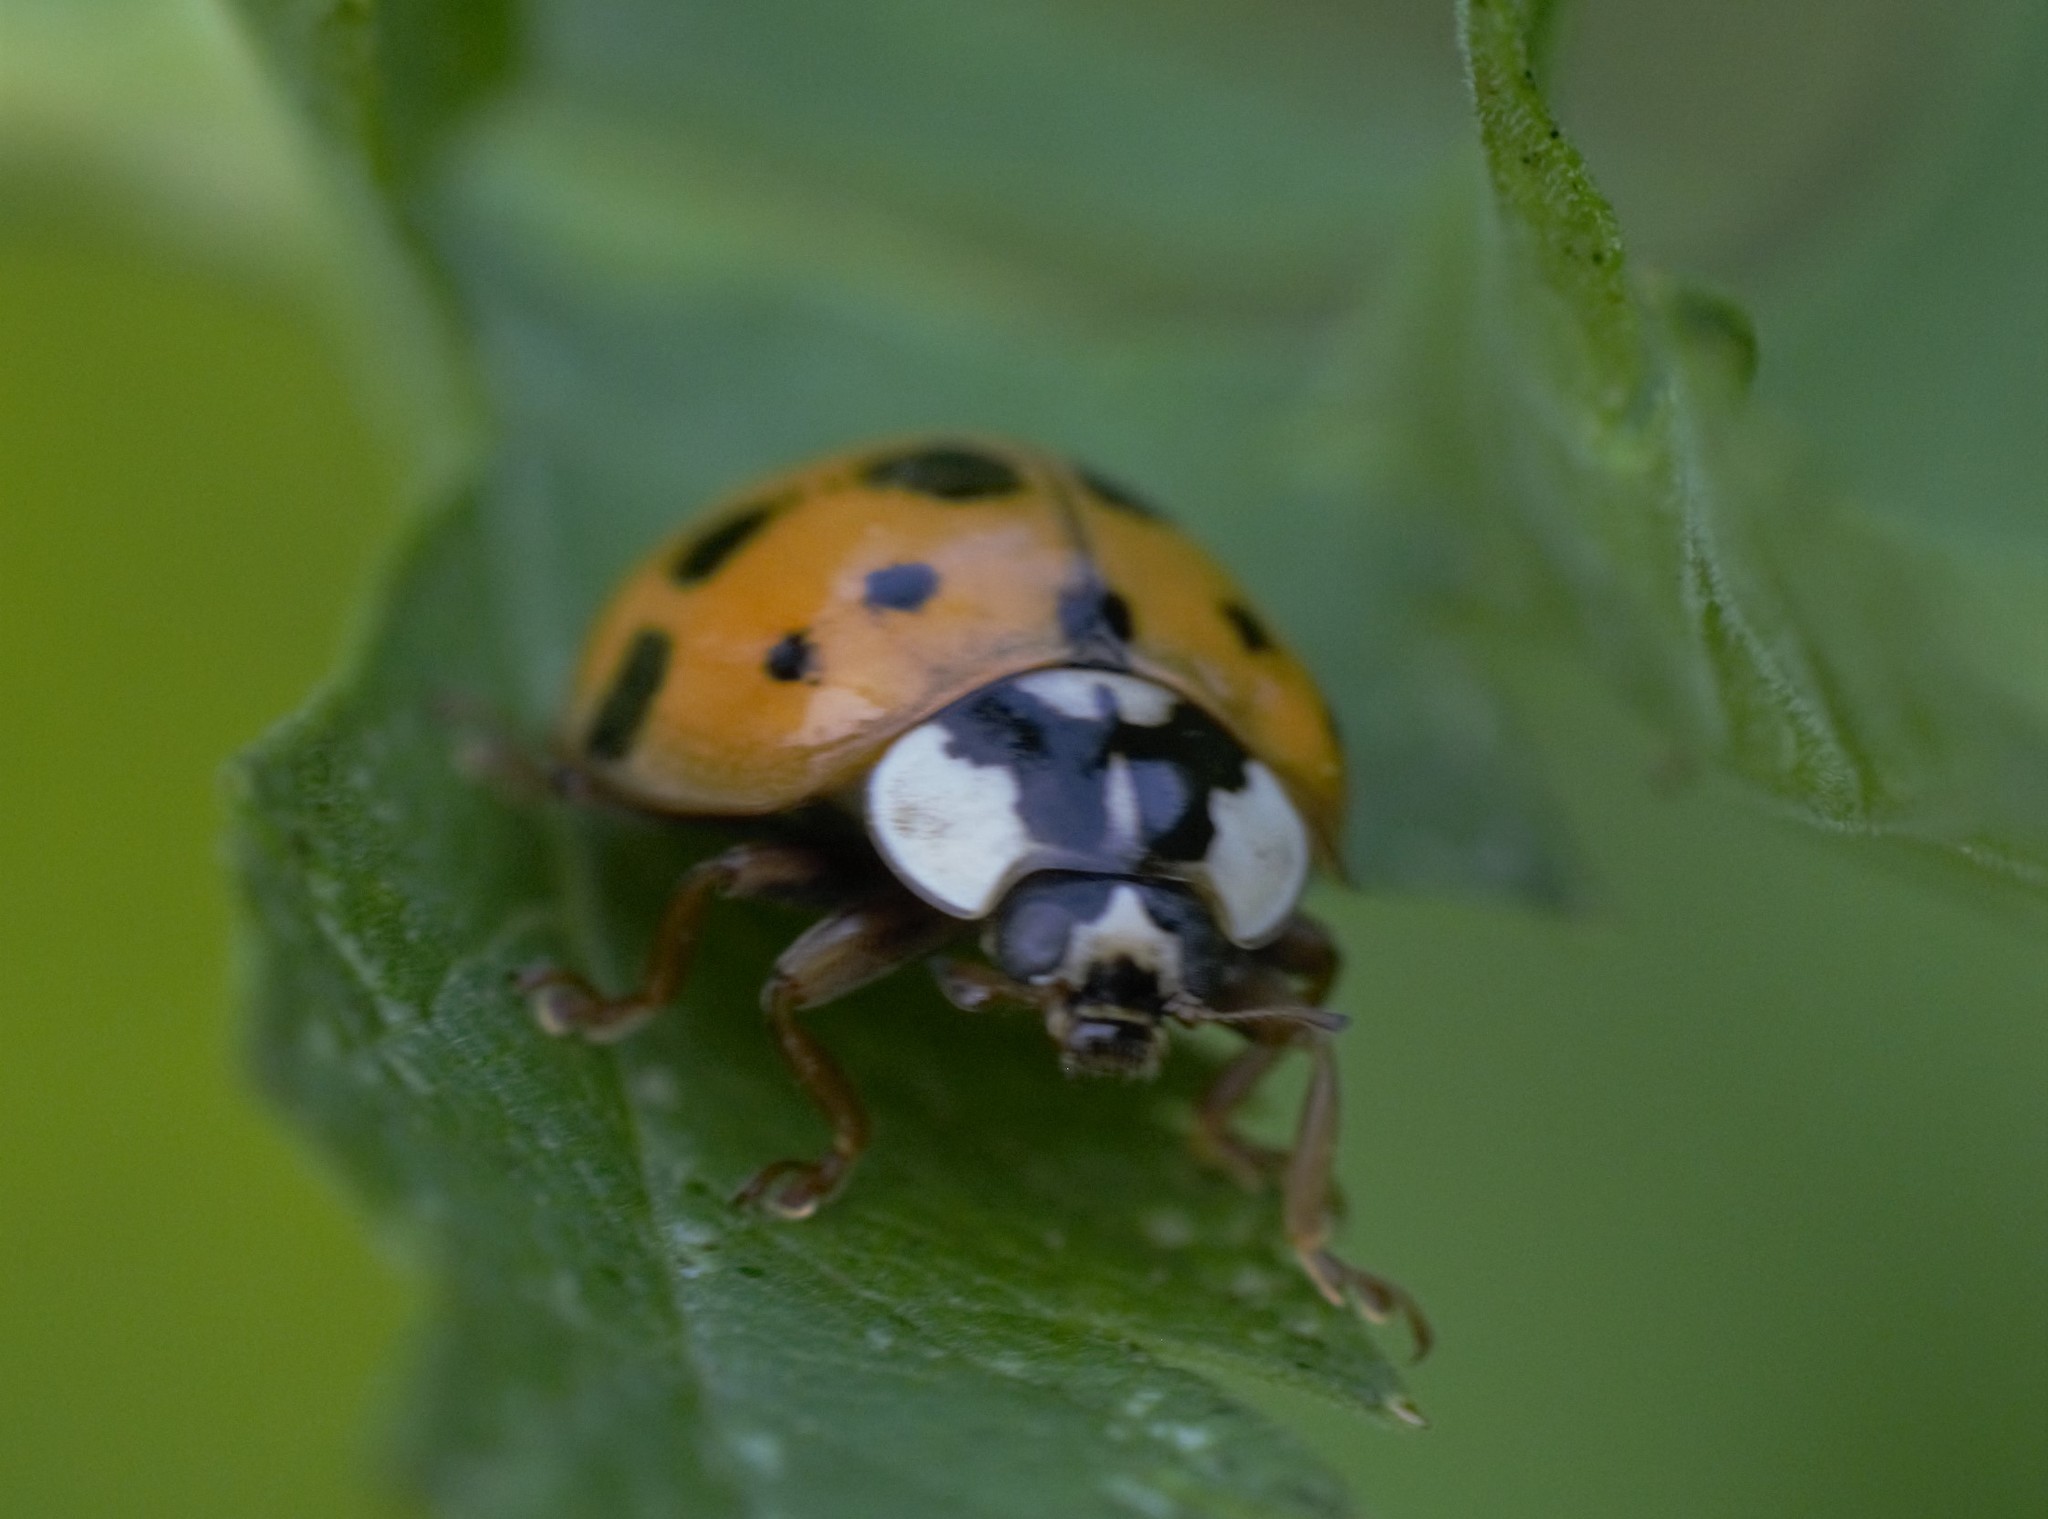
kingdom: Animalia
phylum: Arthropoda
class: Insecta
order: Coleoptera
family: Coccinellidae
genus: Harmonia
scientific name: Harmonia axyridis
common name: Harlequin ladybird
